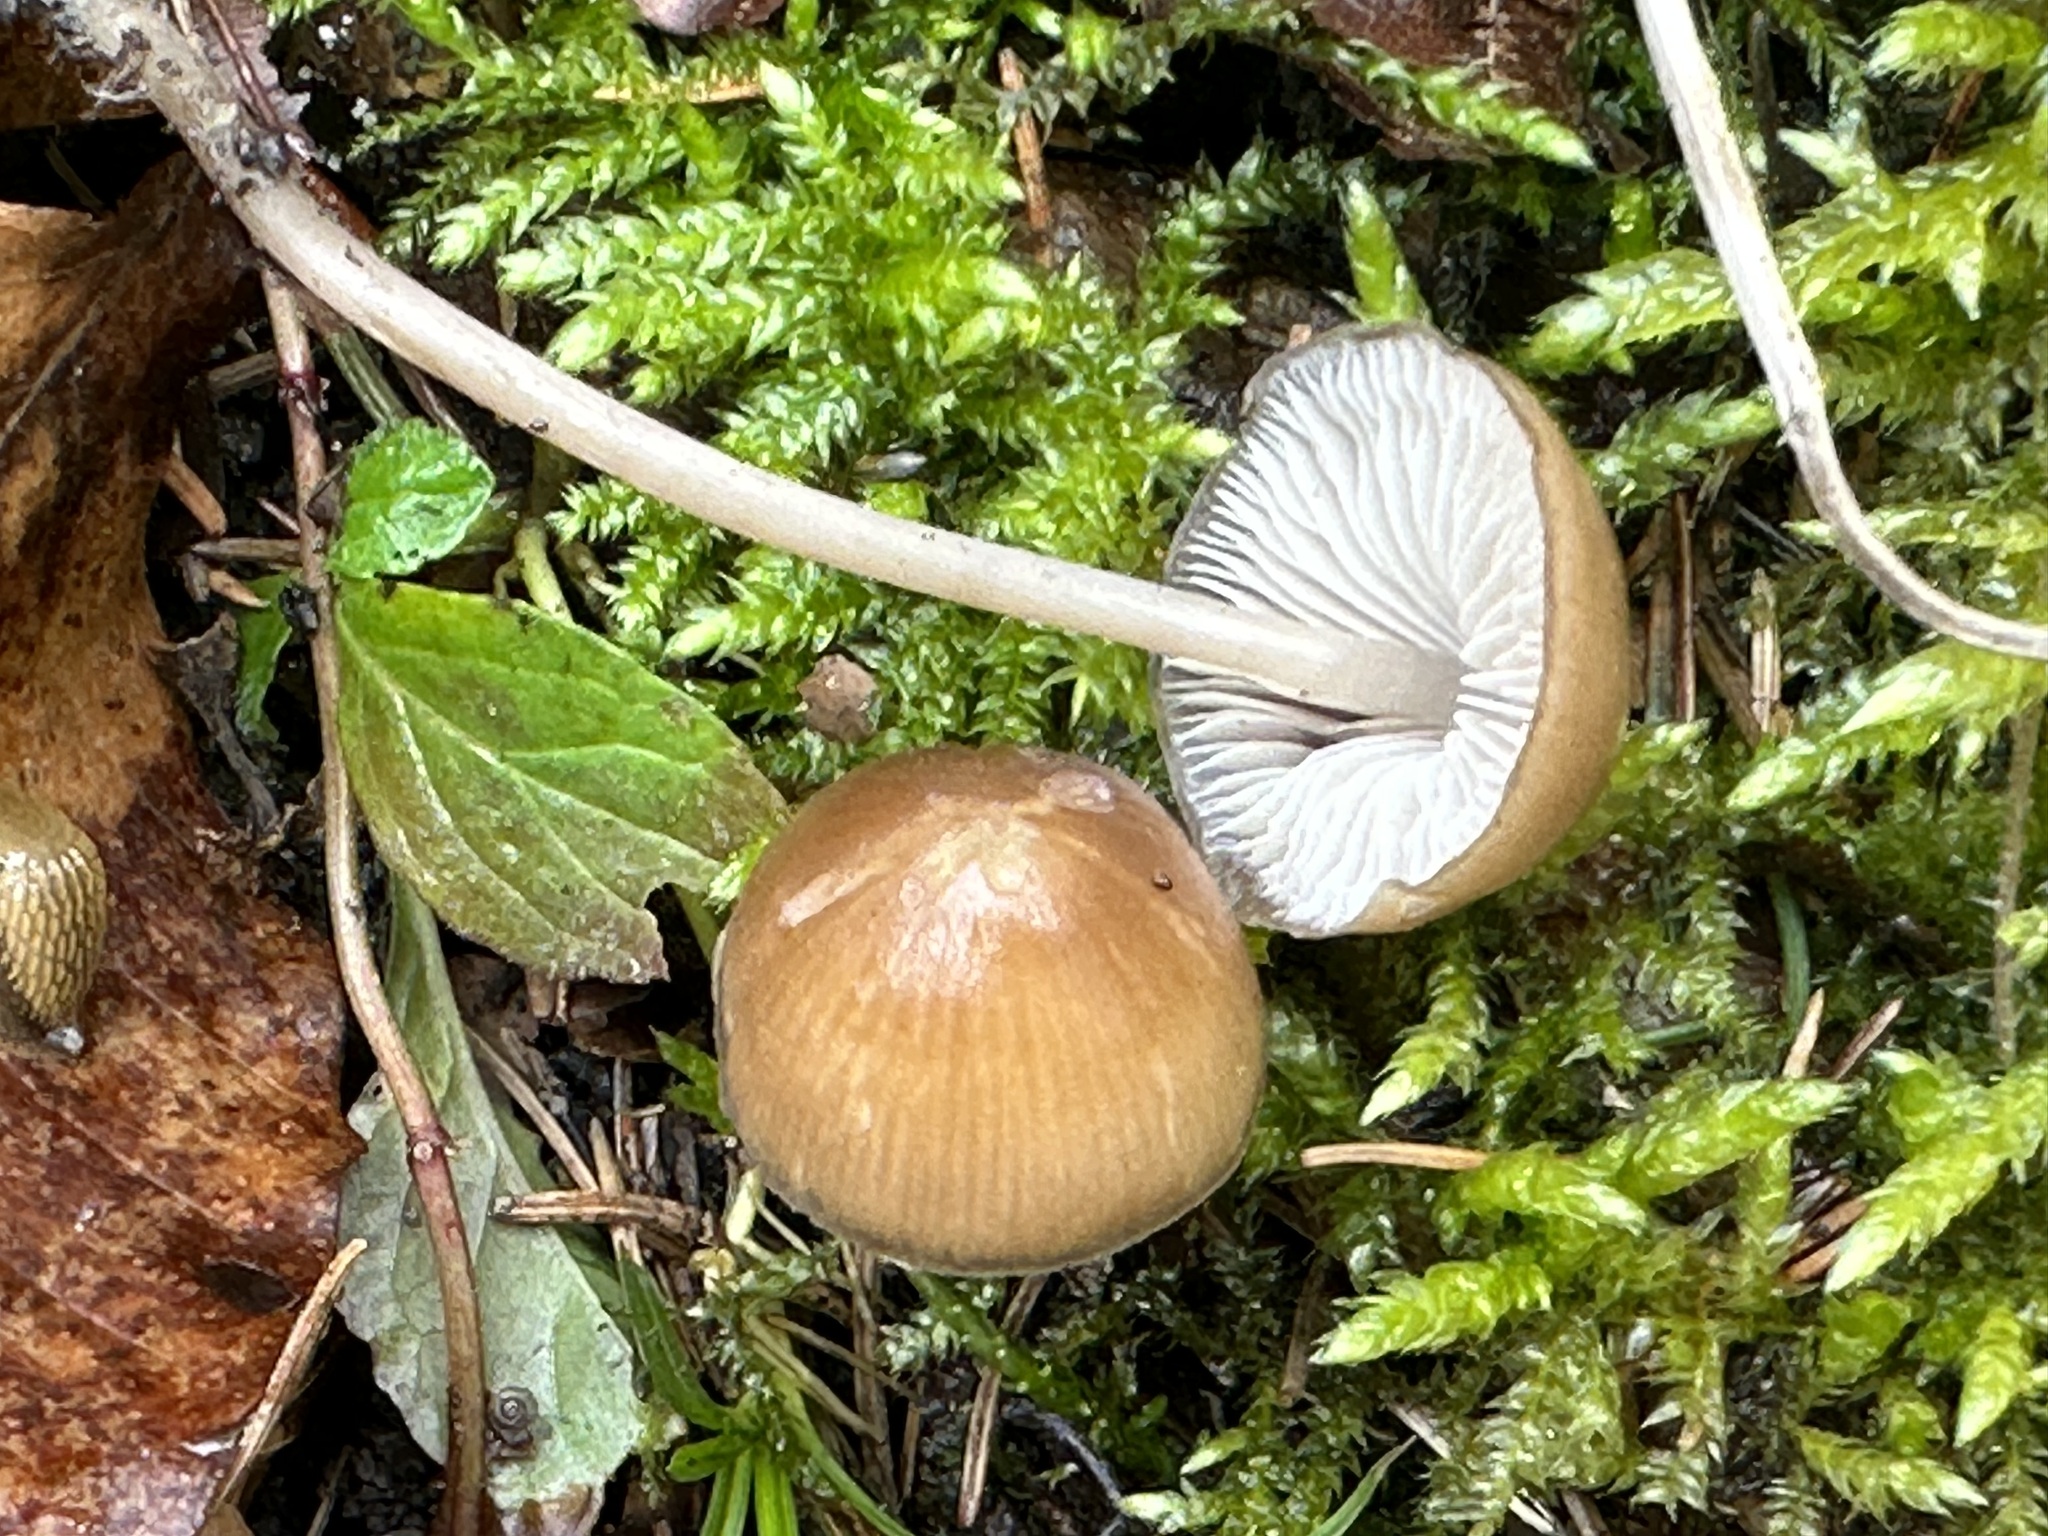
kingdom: Fungi
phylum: Basidiomycota
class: Agaricomycetes
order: Agaricales
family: Mycenaceae
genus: Mycena
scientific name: Mycena plumipes
